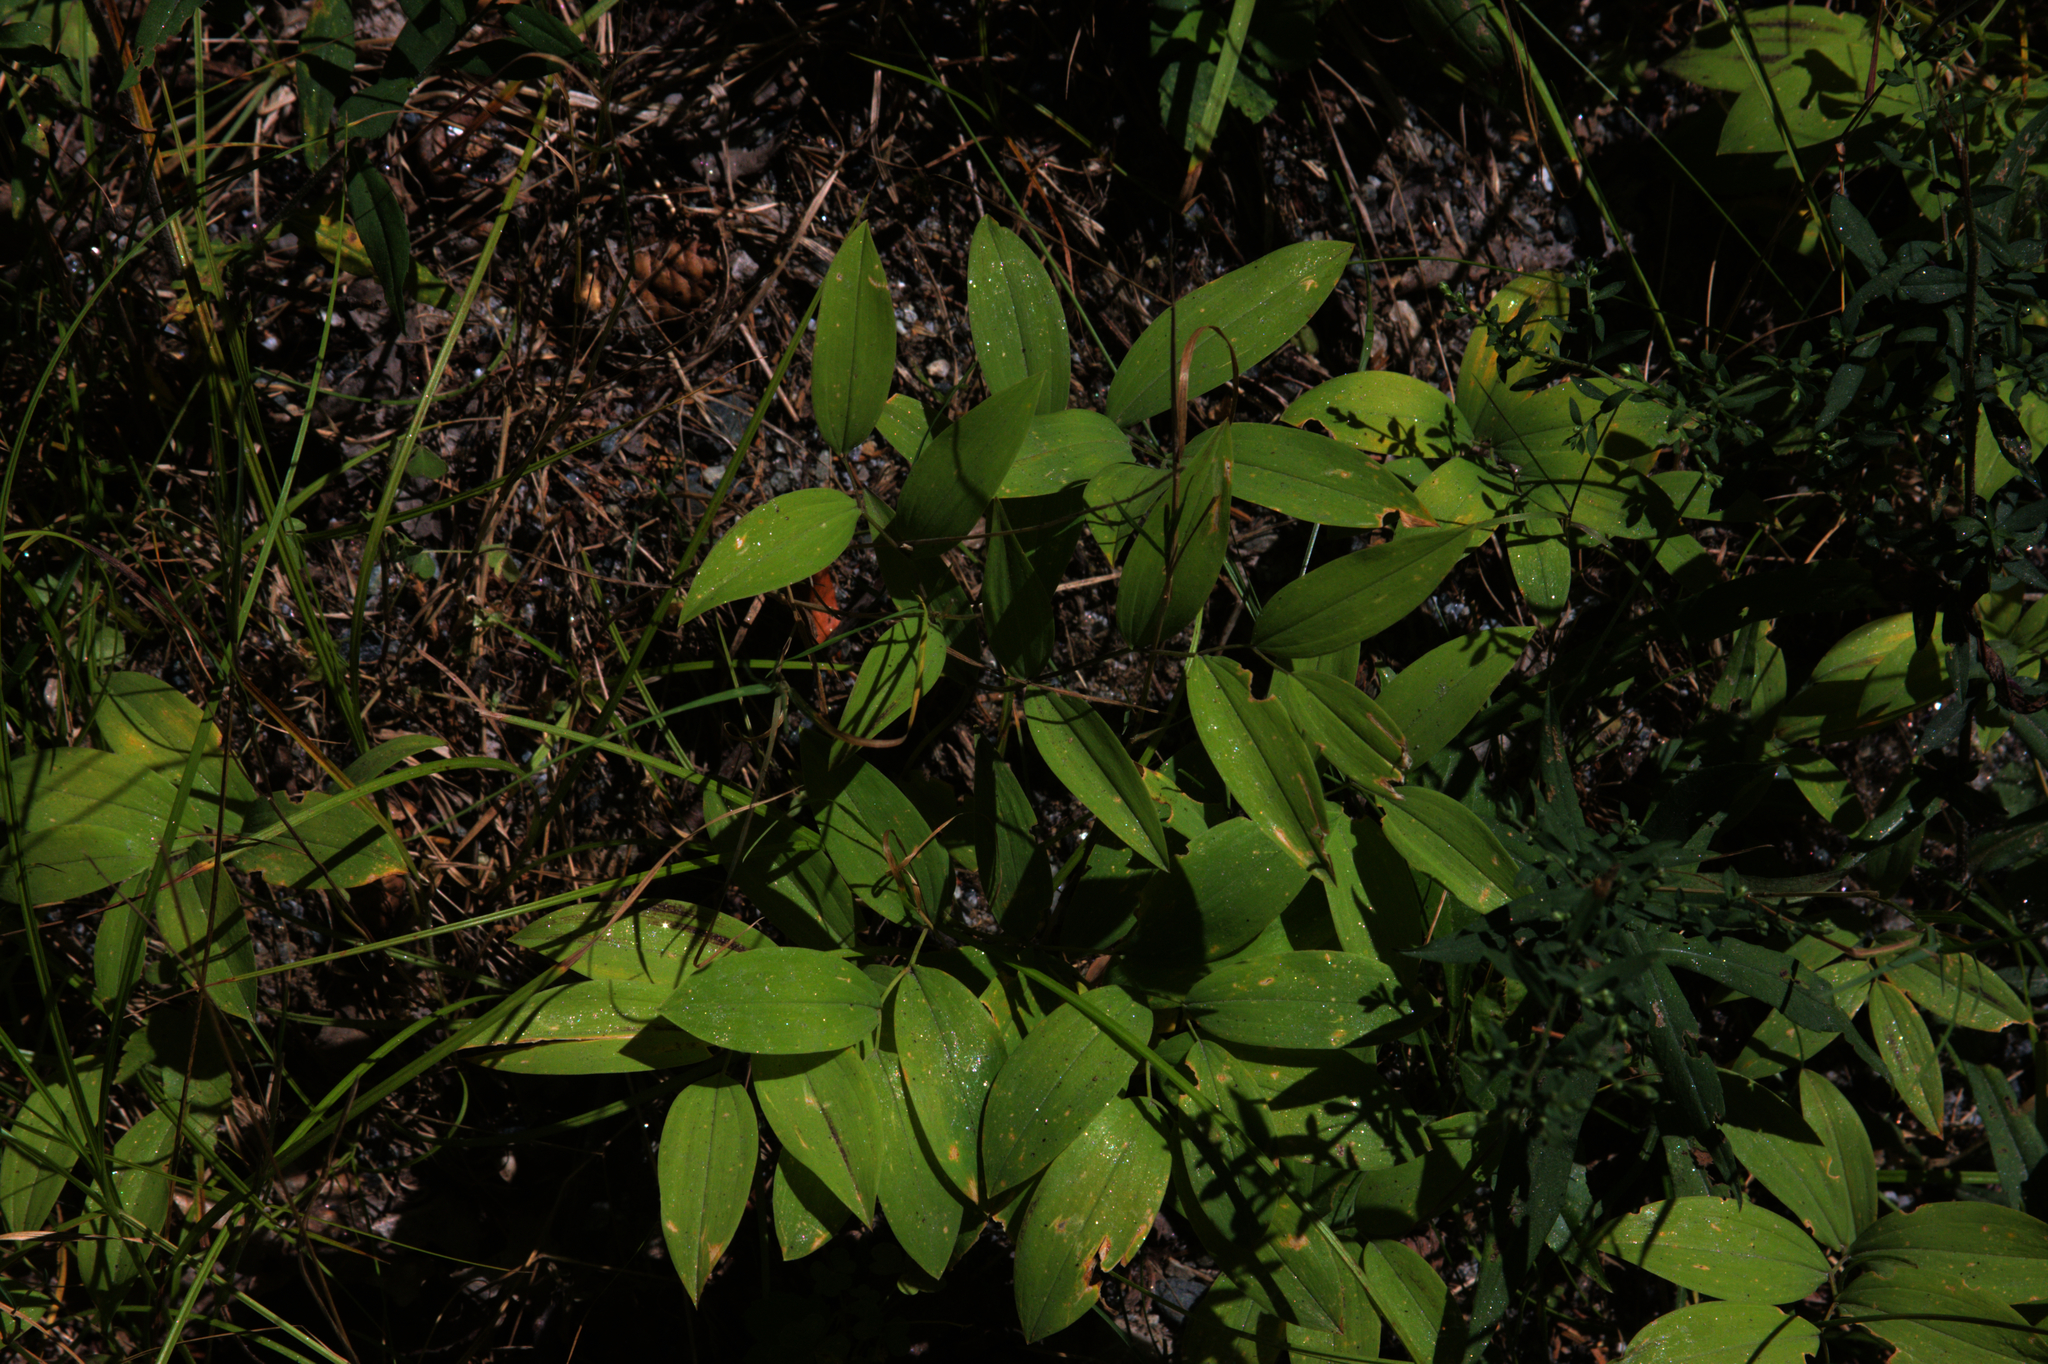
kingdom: Plantae
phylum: Tracheophyta
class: Liliopsida
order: Liliales
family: Colchicaceae
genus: Uvularia
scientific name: Uvularia sessilifolia
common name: Straw-lily
